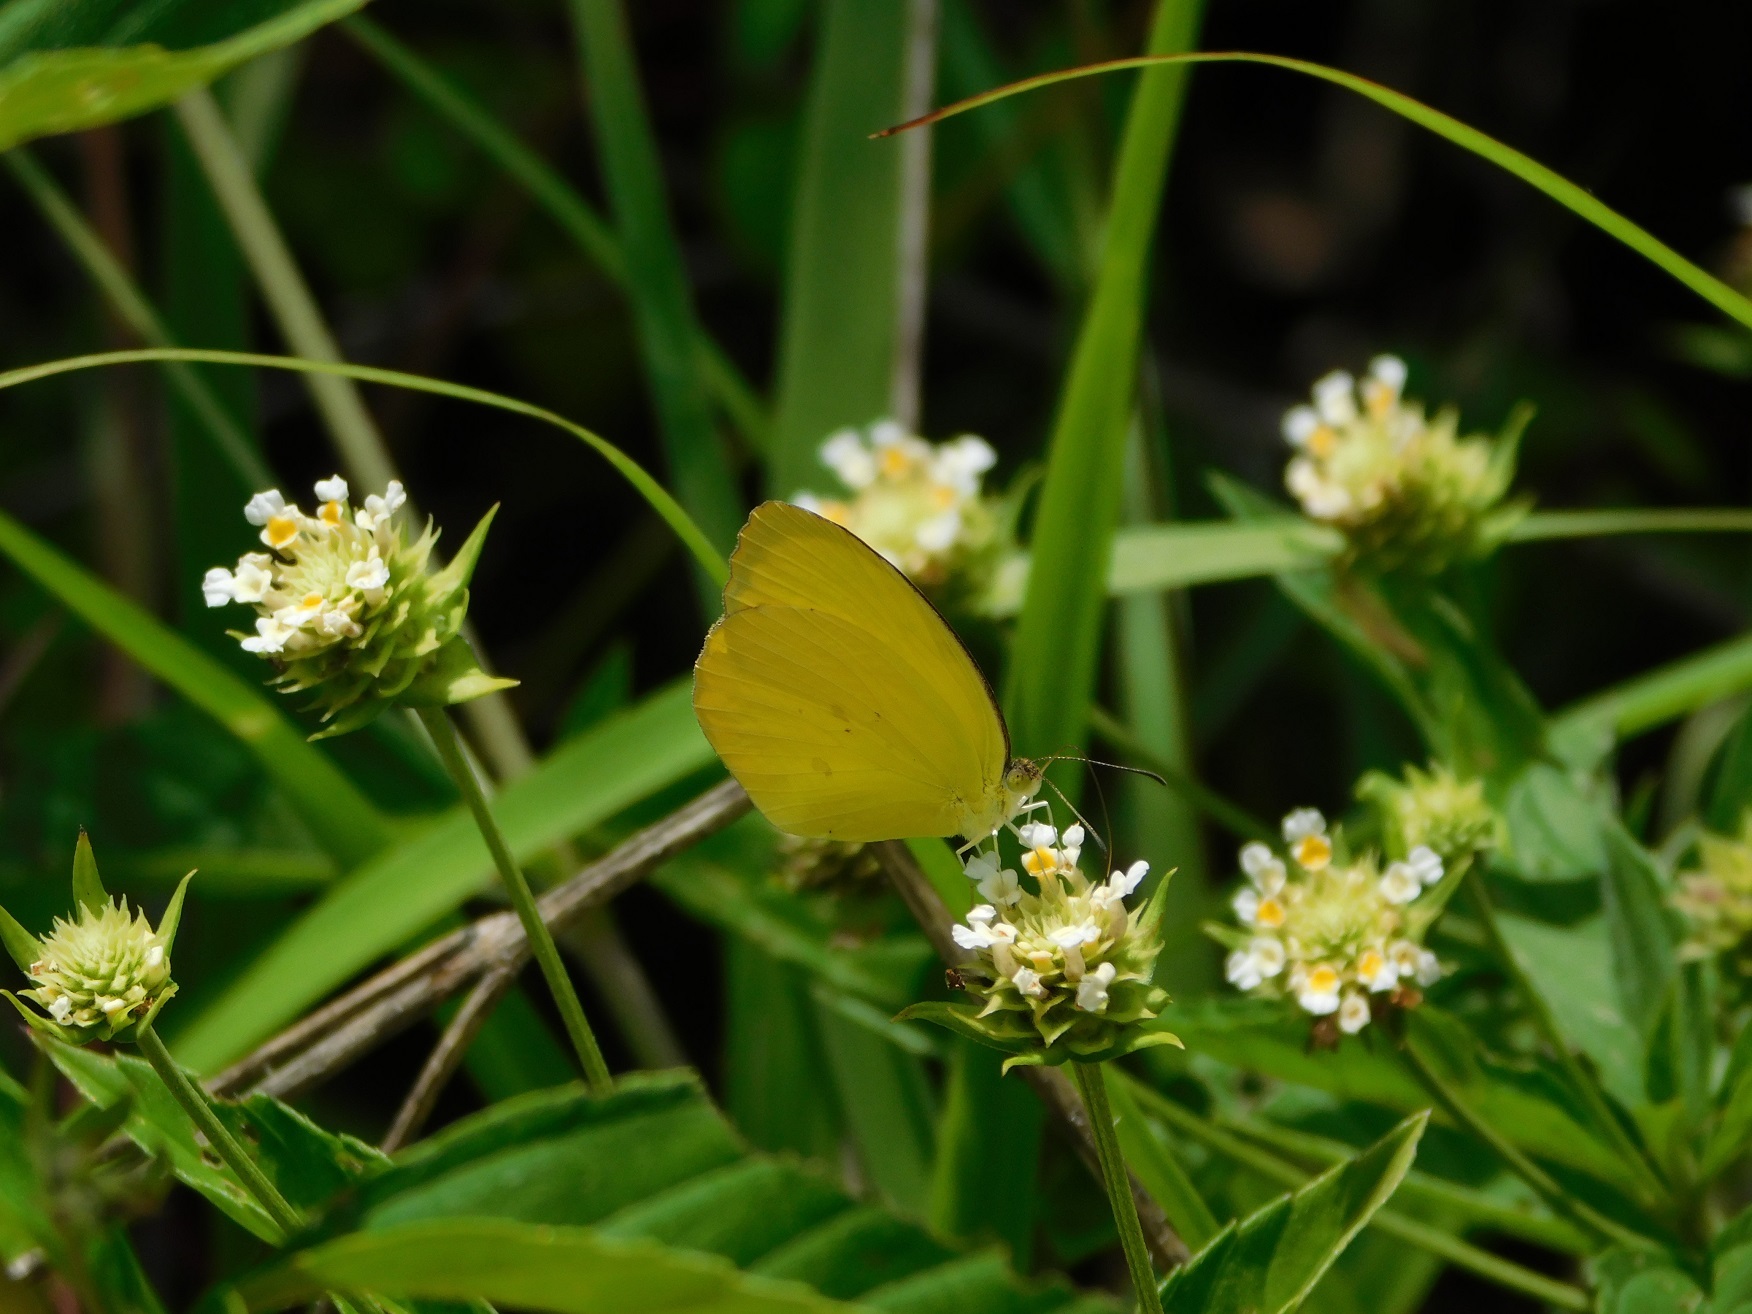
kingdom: Animalia
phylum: Arthropoda
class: Insecta
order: Lepidoptera
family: Pieridae
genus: Pyrisitia
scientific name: Pyrisitia westwoodi
